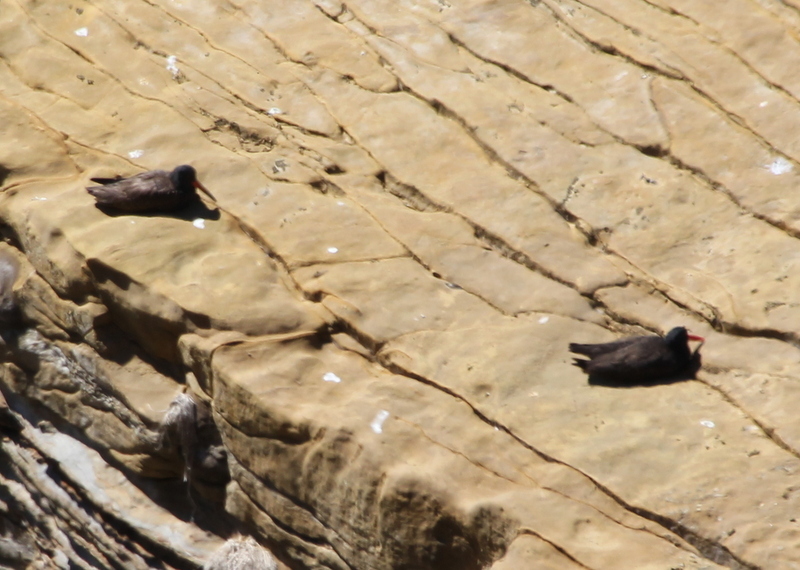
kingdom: Animalia
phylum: Chordata
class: Aves
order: Charadriiformes
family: Haematopodidae
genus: Haematopus
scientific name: Haematopus bachmani
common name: Black oystercatcher
